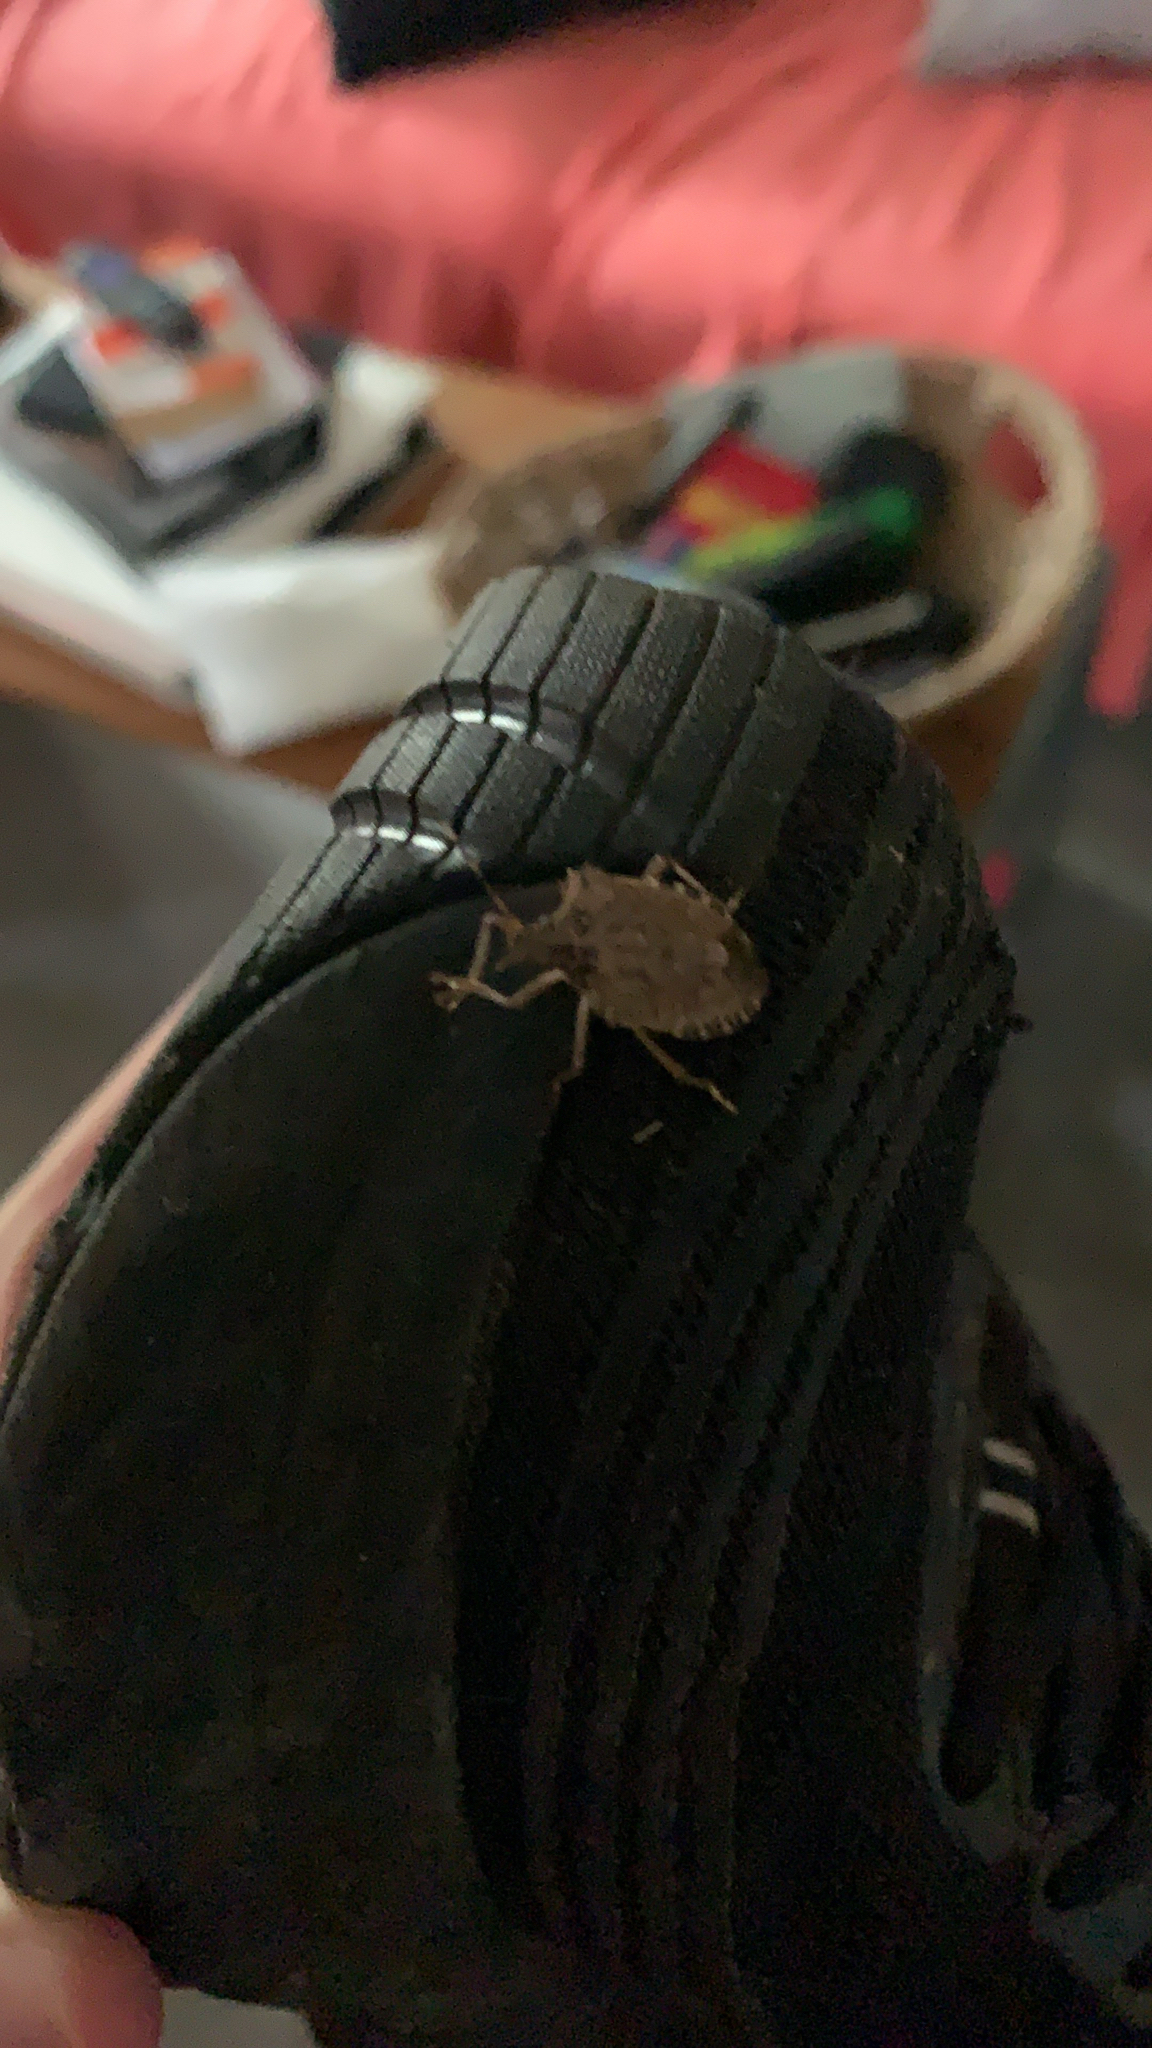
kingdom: Animalia
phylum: Arthropoda
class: Insecta
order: Hemiptera
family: Pentatomidae
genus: Halyomorpha
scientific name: Halyomorpha halys
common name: Brown marmorated stink bug
